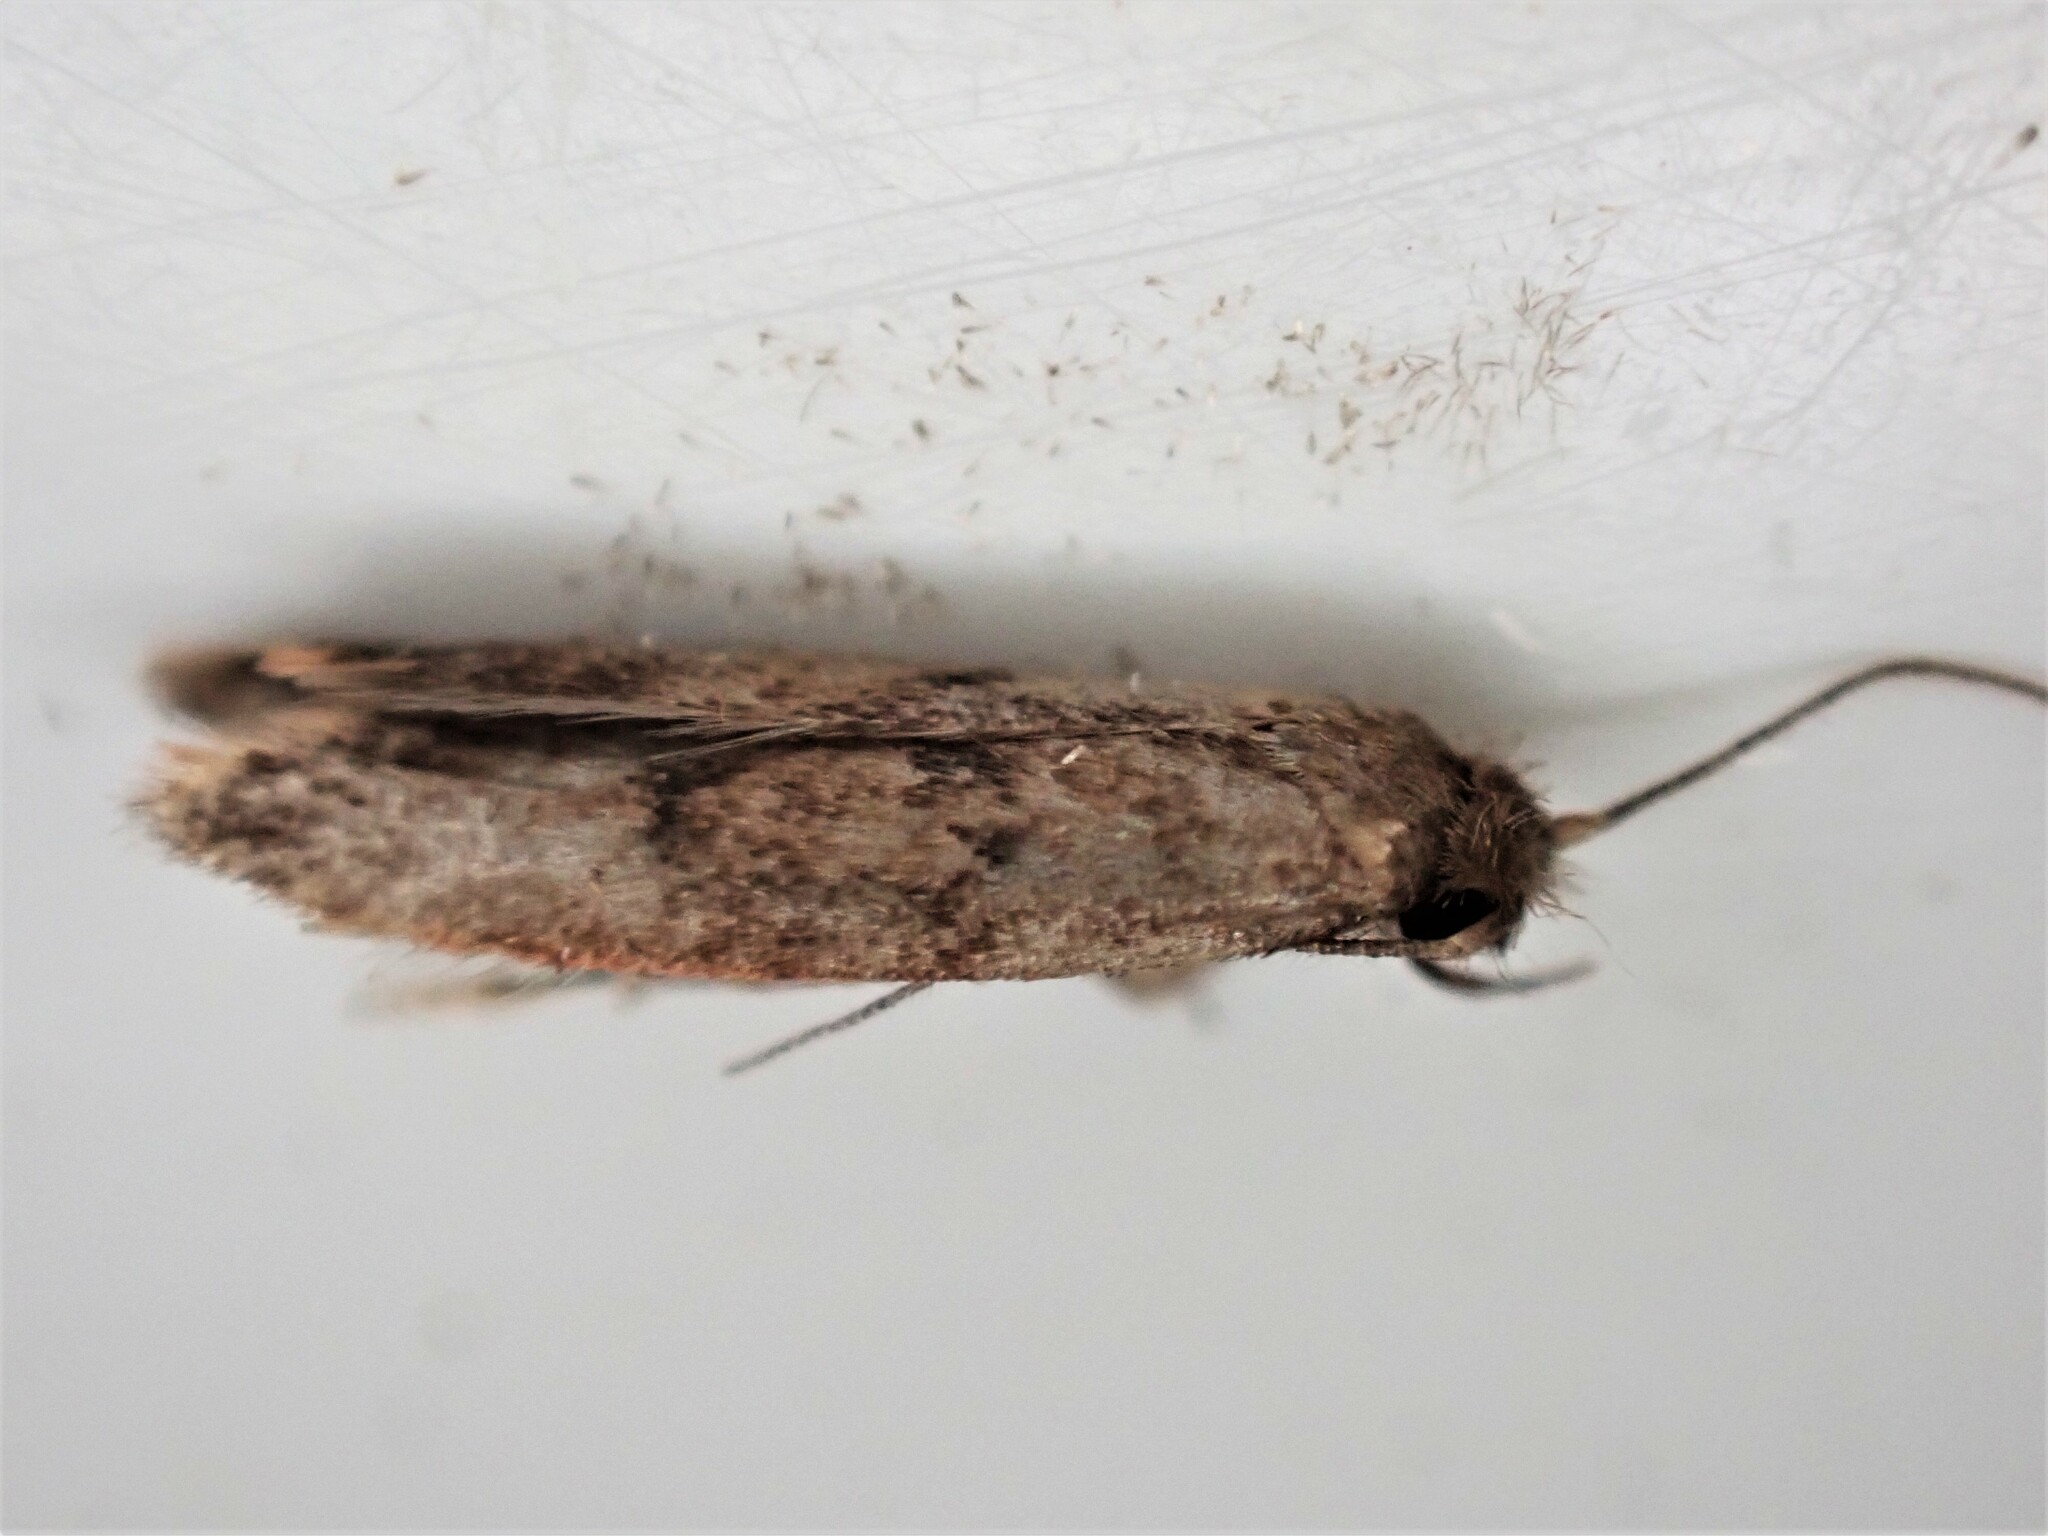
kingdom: Animalia
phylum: Arthropoda
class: Insecta
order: Lepidoptera
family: Oecophoridae
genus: Tachystola
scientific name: Tachystola acroxantha
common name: Ruddy streak
